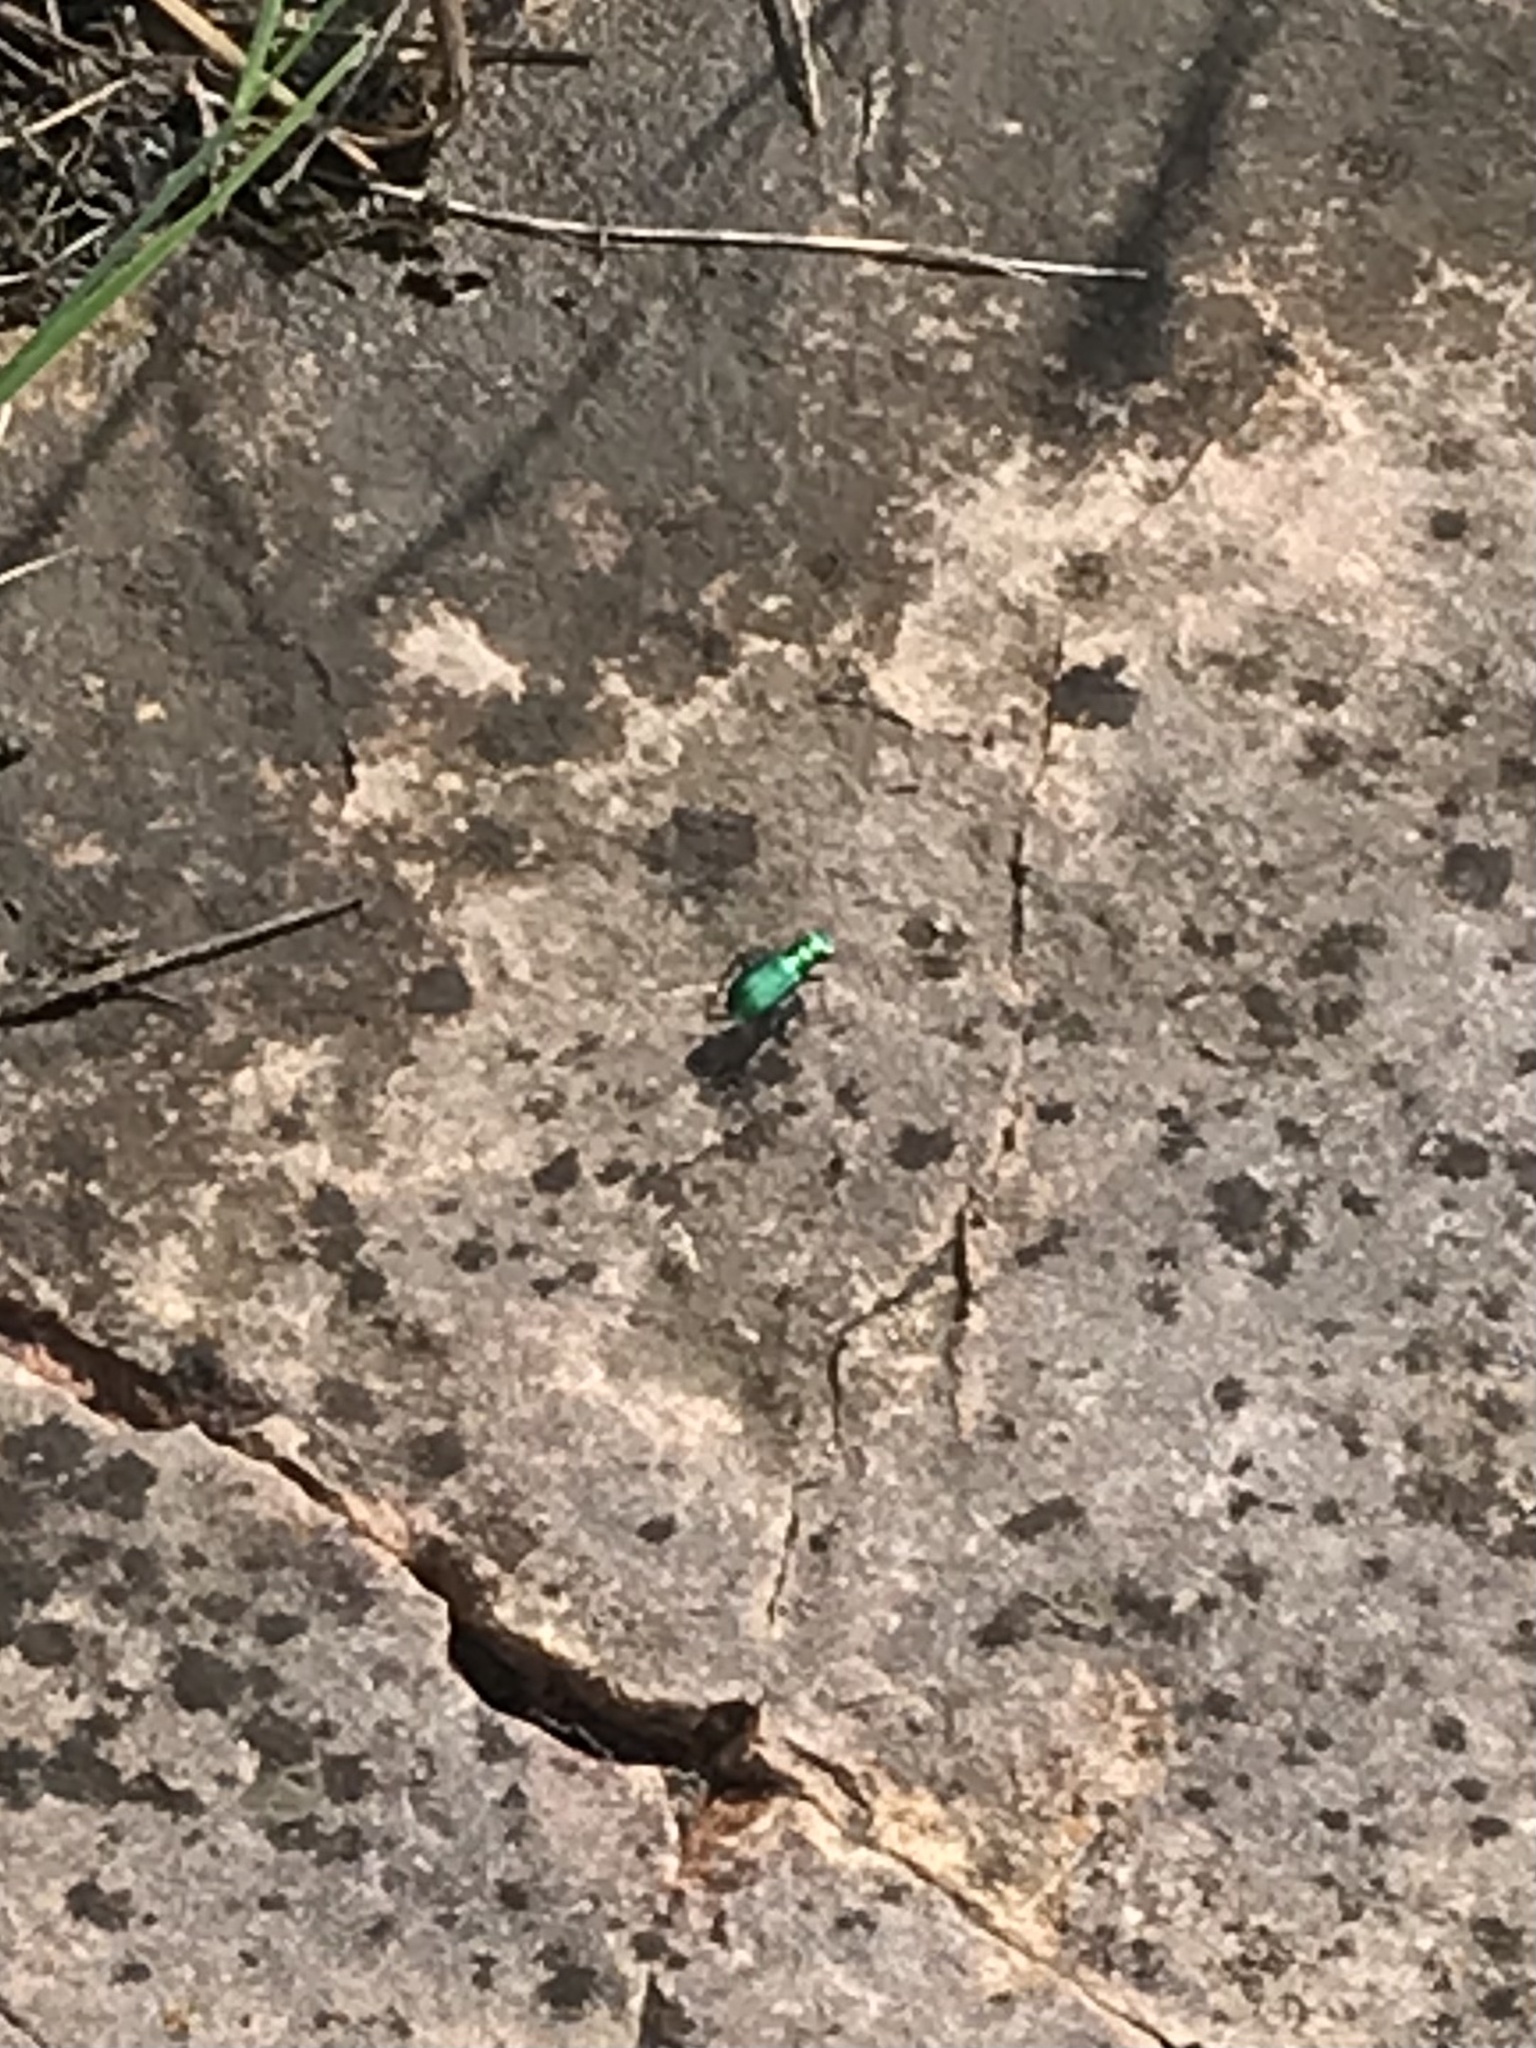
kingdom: Animalia
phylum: Arthropoda
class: Insecta
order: Coleoptera
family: Carabidae
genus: Cicindela
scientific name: Cicindela sexguttata
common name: Six-spotted tiger beetle
